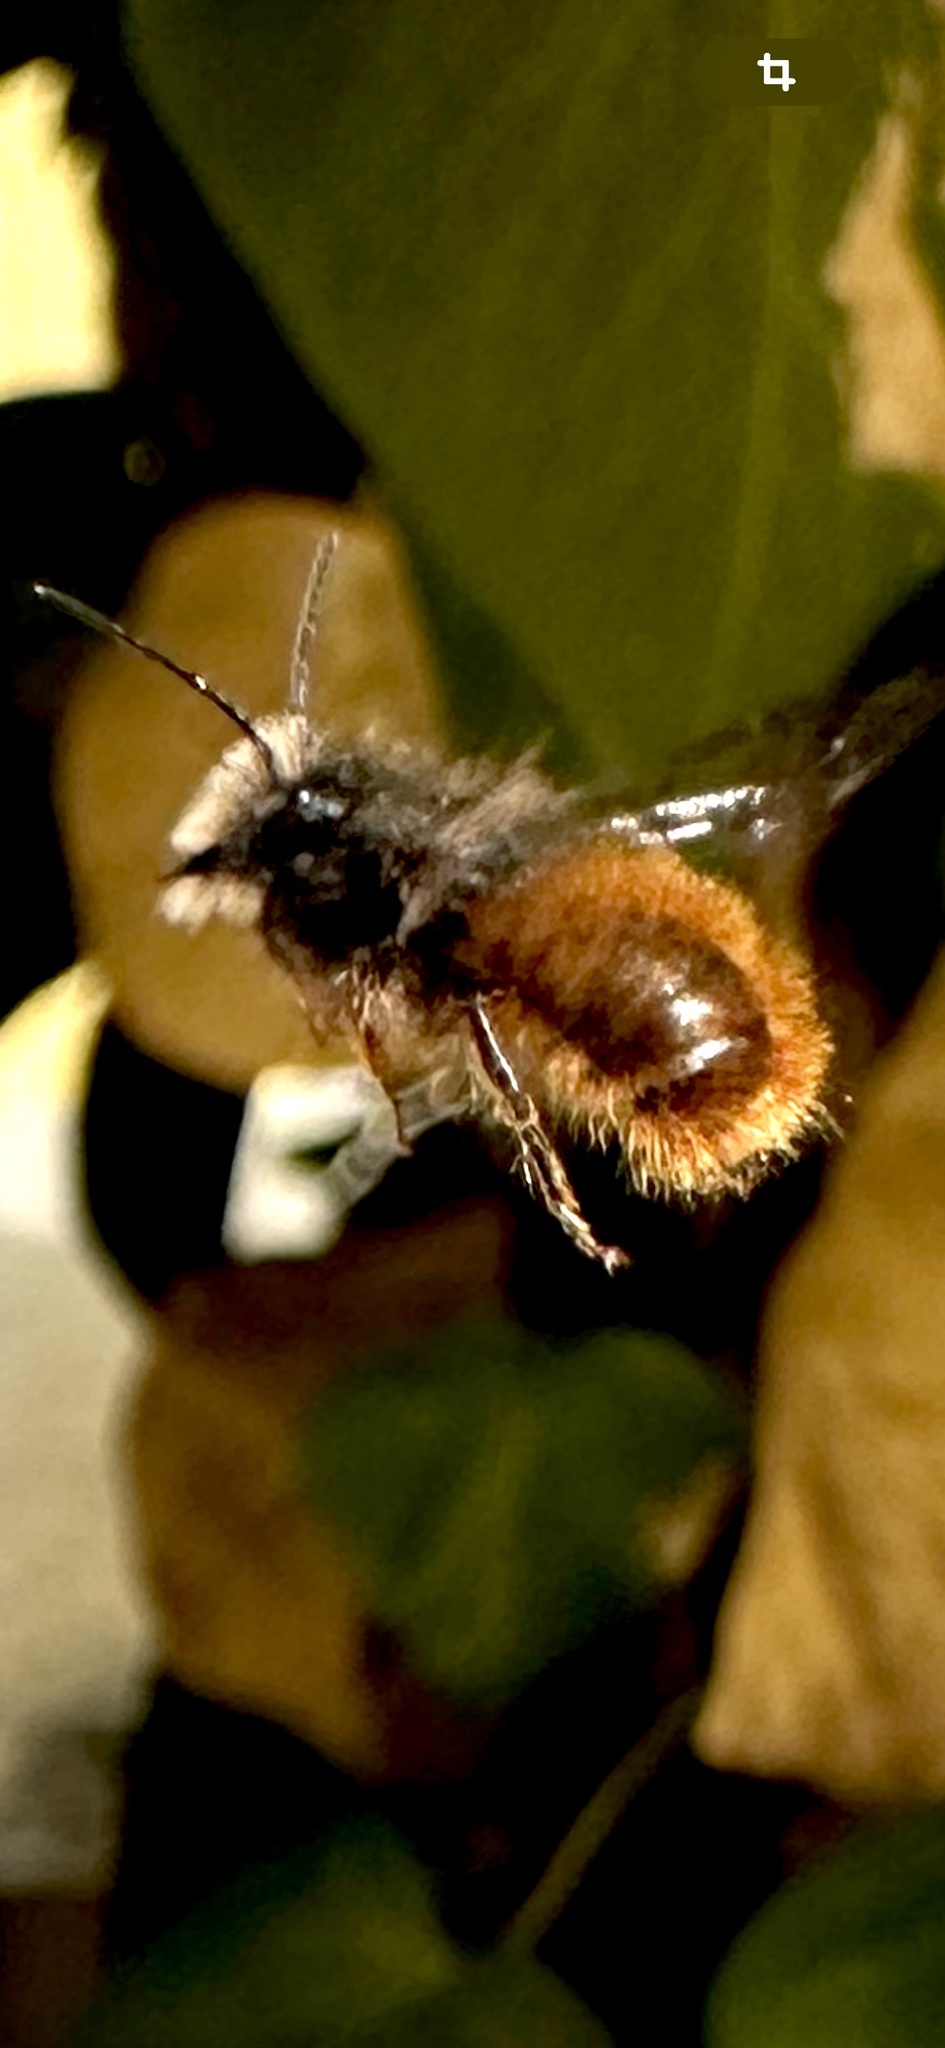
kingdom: Animalia
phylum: Arthropoda
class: Insecta
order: Hymenoptera
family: Megachilidae
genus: Osmia
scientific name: Osmia cornuta
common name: Mason bee
